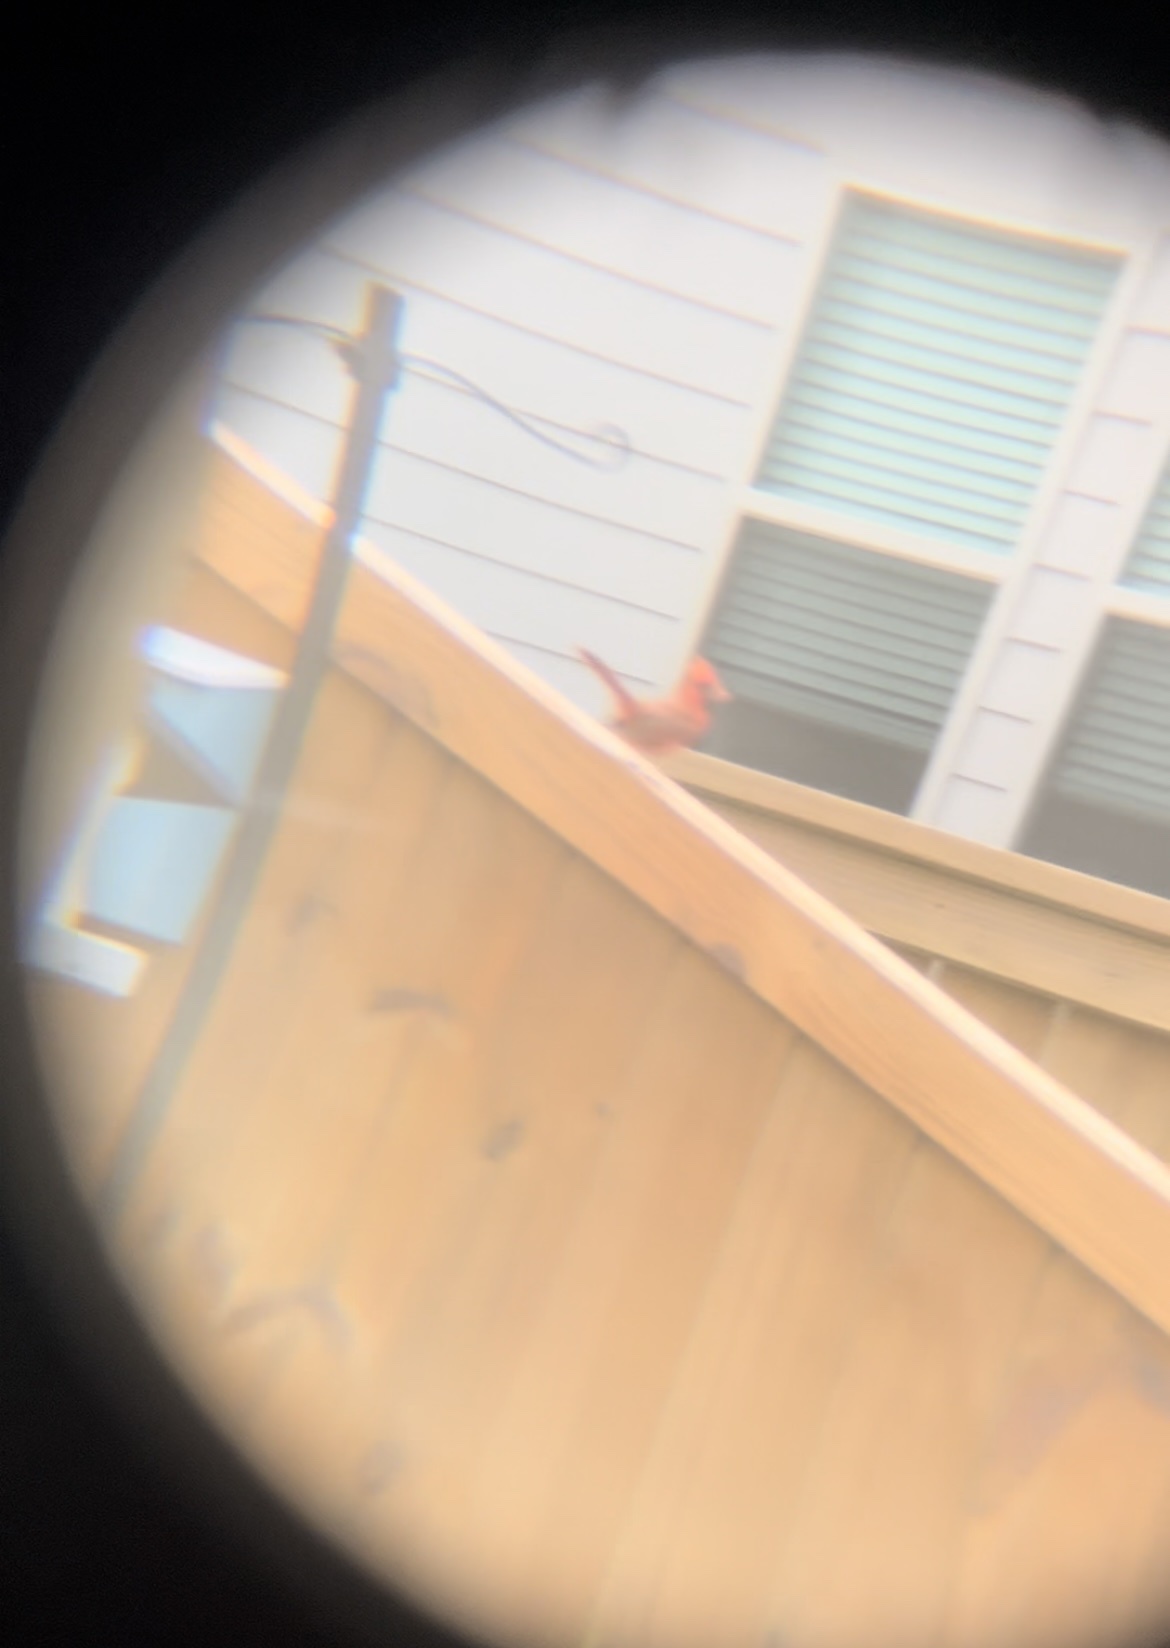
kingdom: Animalia
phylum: Chordata
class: Aves
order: Passeriformes
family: Cardinalidae
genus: Cardinalis
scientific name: Cardinalis cardinalis
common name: Northern cardinal
